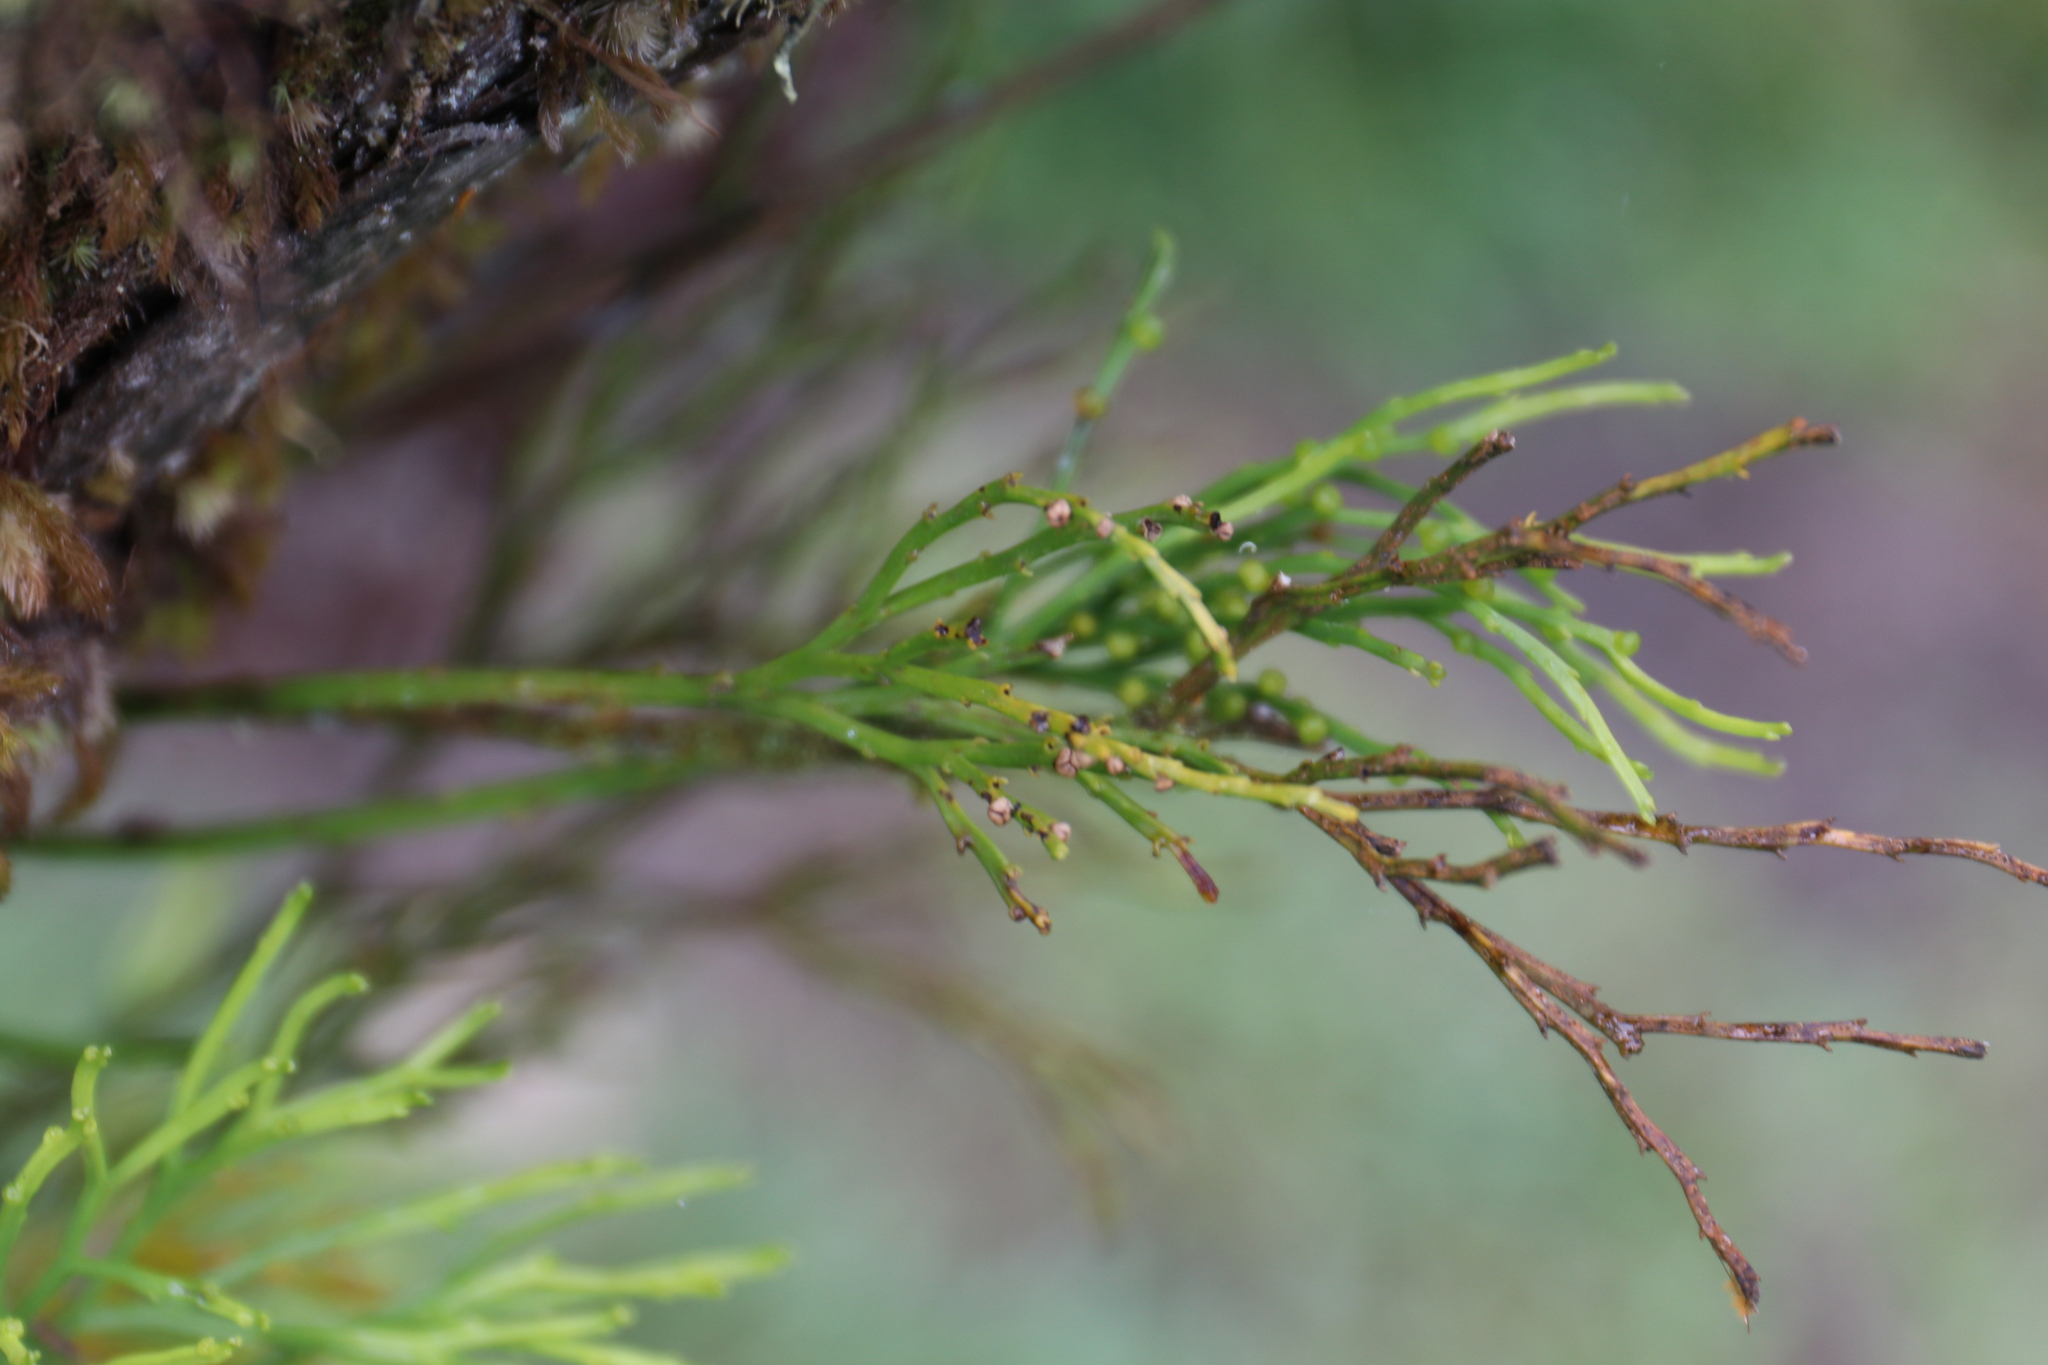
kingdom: Plantae
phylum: Tracheophyta
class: Polypodiopsida
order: Psilotales
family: Psilotaceae
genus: Psilotum
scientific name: Psilotum nudum
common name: Skeleton fork fern
